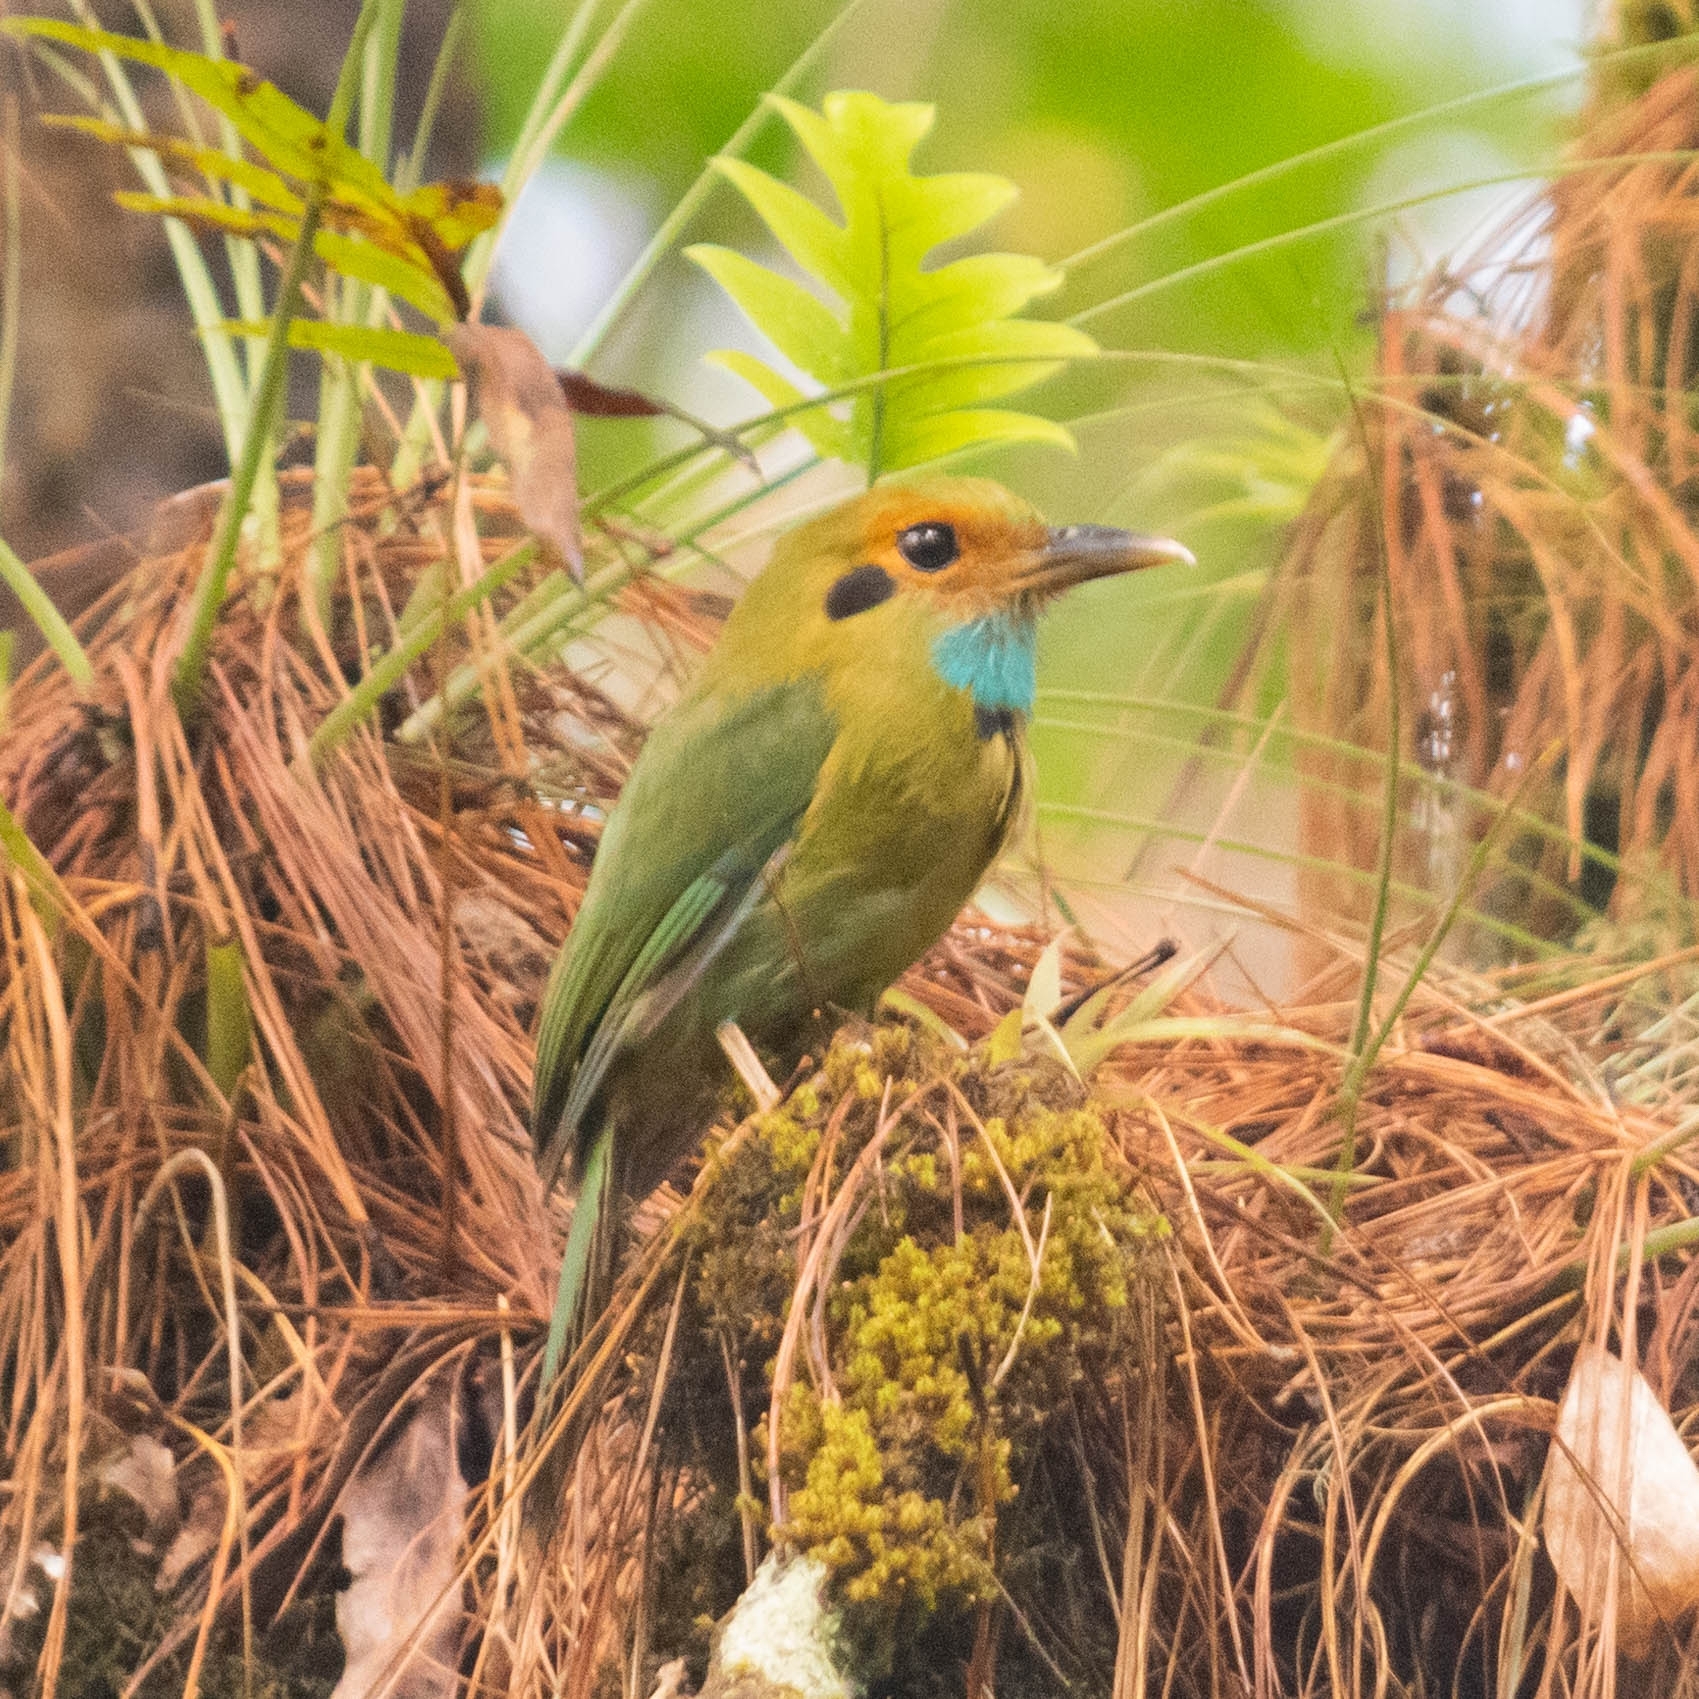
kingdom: Animalia
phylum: Chordata
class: Aves
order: Coraciiformes
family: Momotidae
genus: Aspatha
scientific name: Aspatha gularis
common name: Blue-throated motmot
